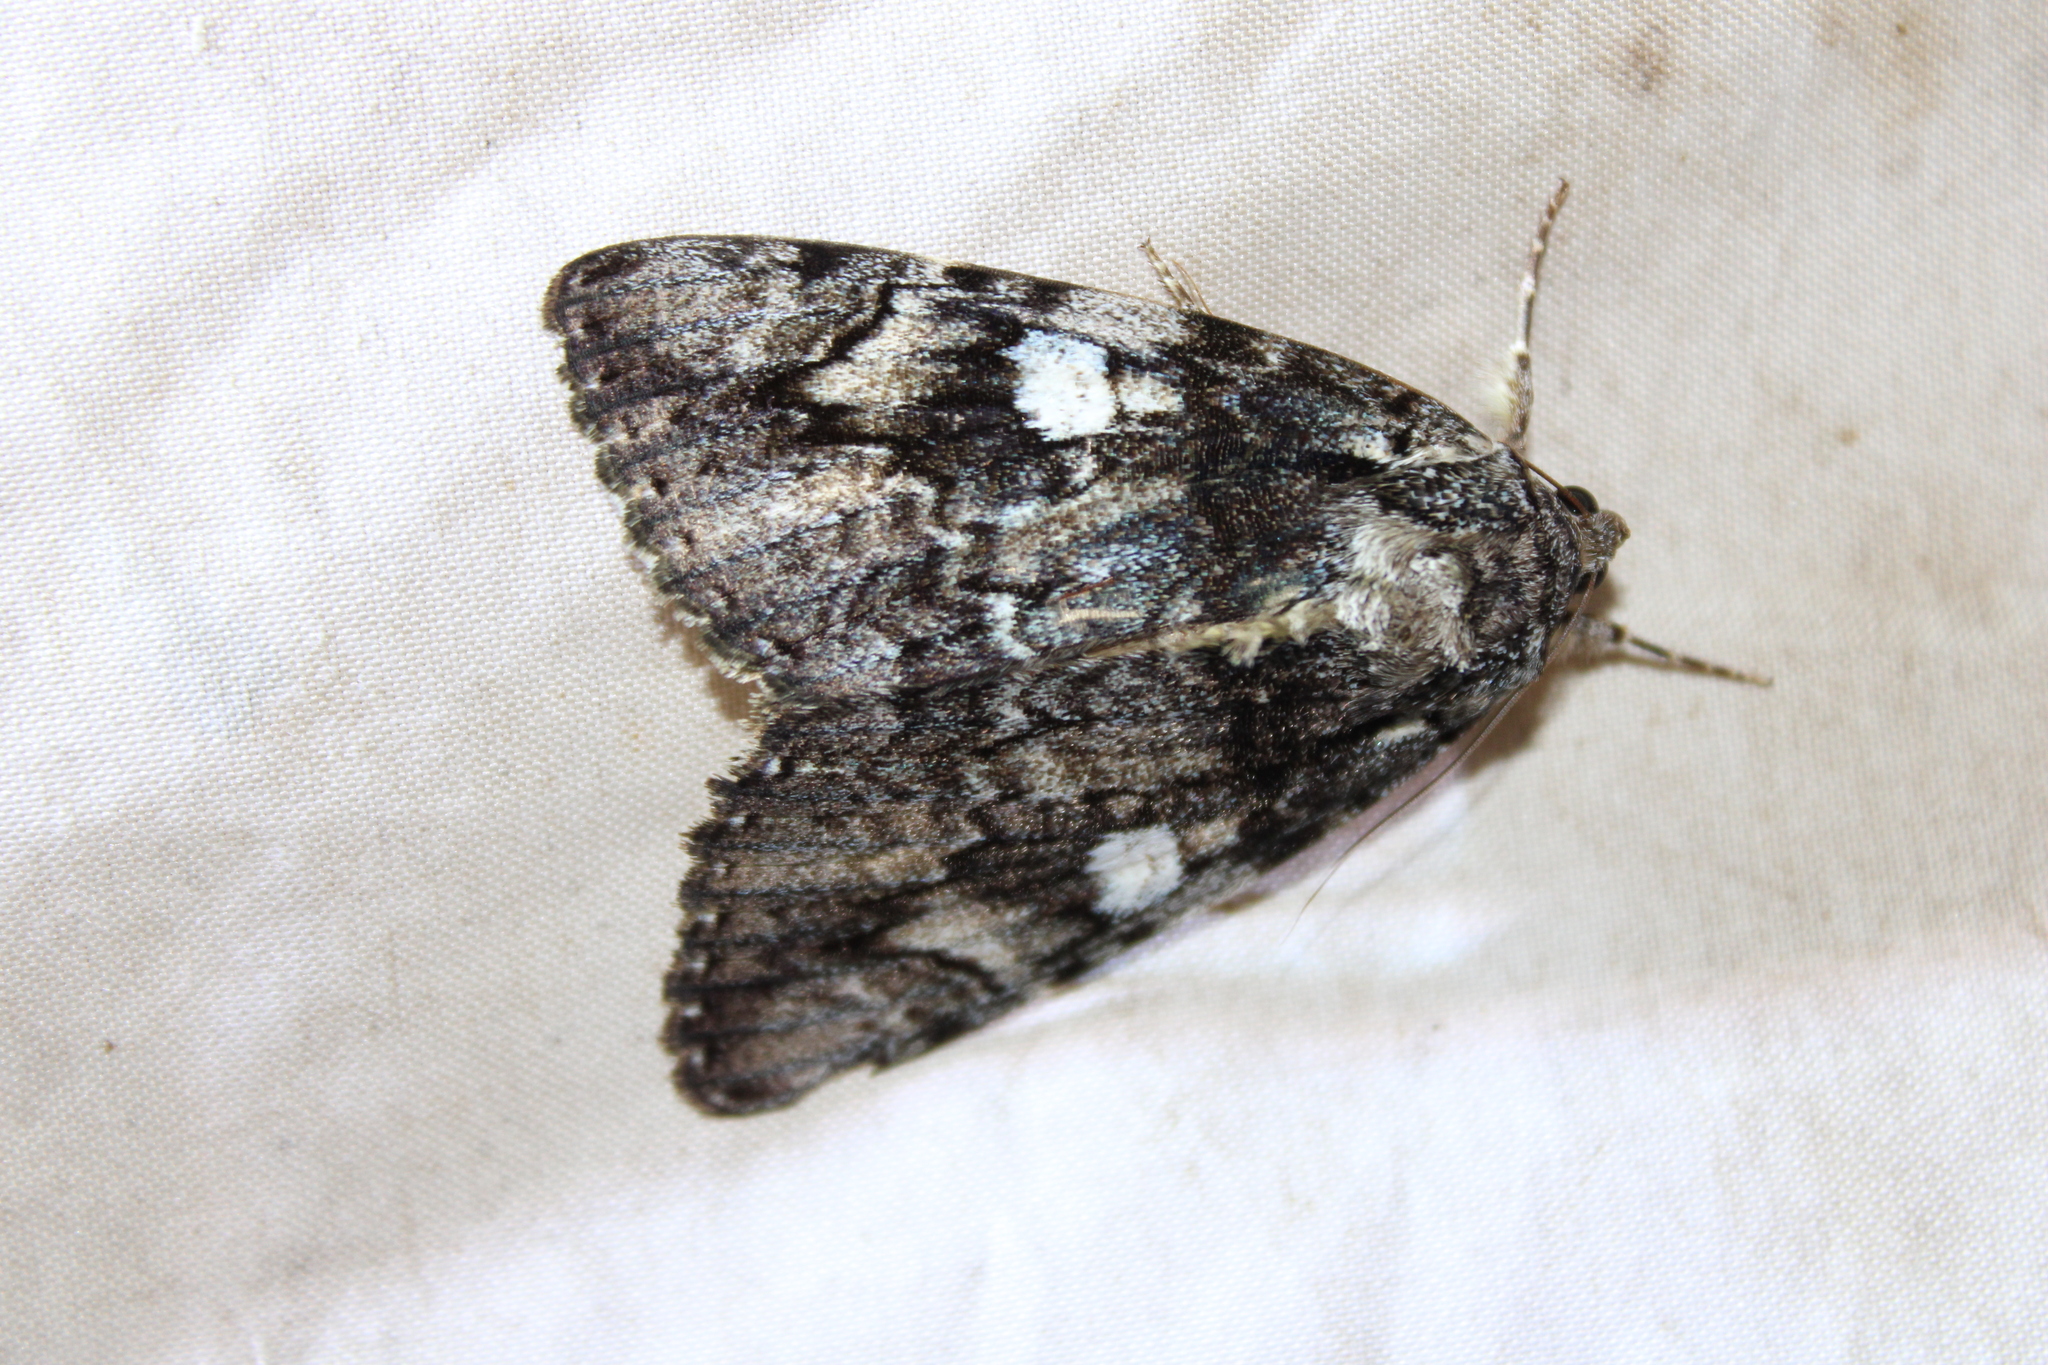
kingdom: Animalia
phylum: Arthropoda
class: Insecta
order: Lepidoptera
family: Erebidae
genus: Catocala
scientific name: Catocala ilia
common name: Ilia underwing
